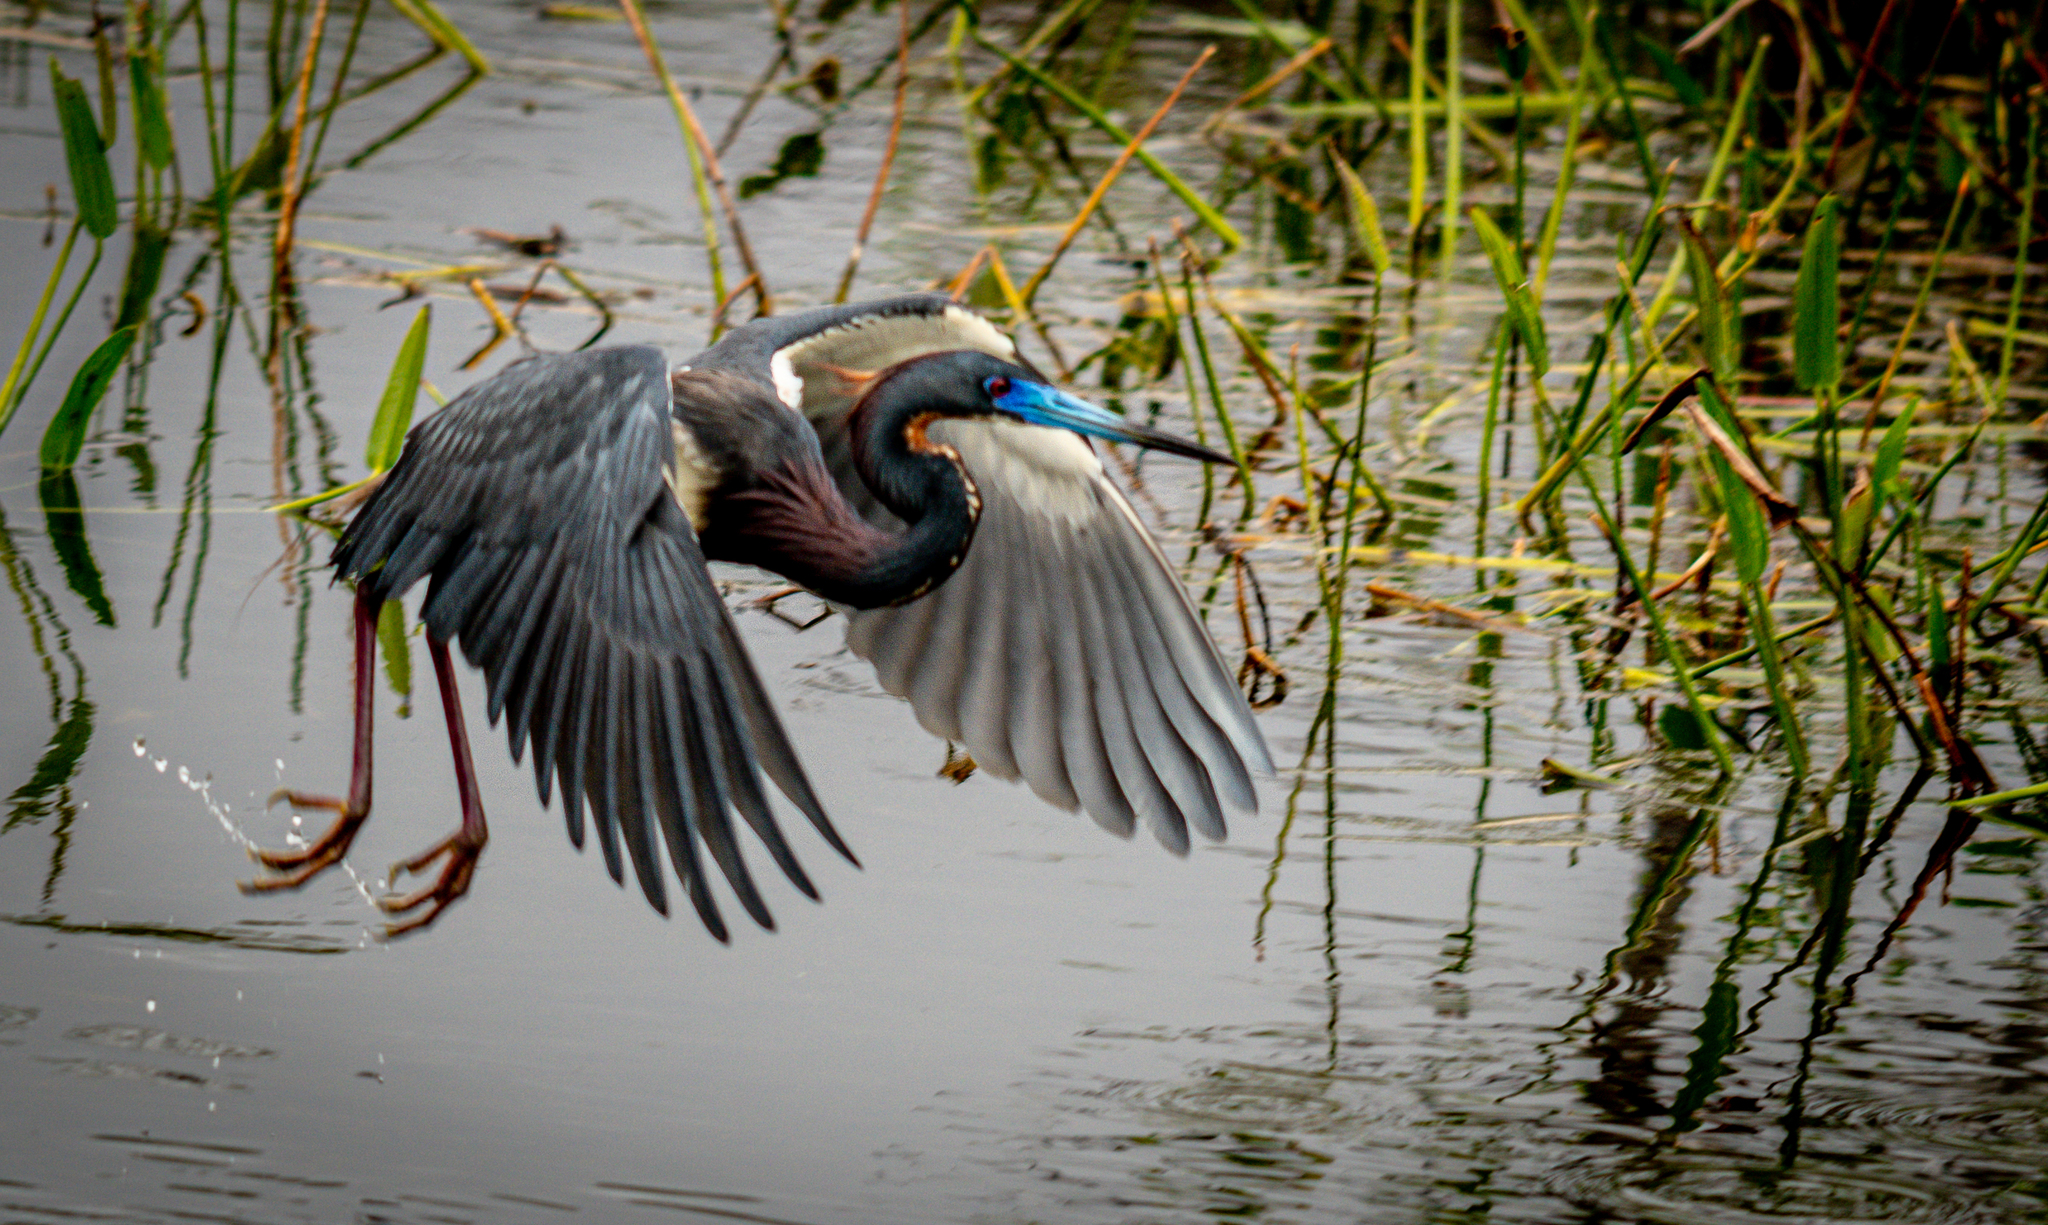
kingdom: Animalia
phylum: Chordata
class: Aves
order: Pelecaniformes
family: Ardeidae
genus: Egretta
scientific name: Egretta tricolor
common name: Tricolored heron
